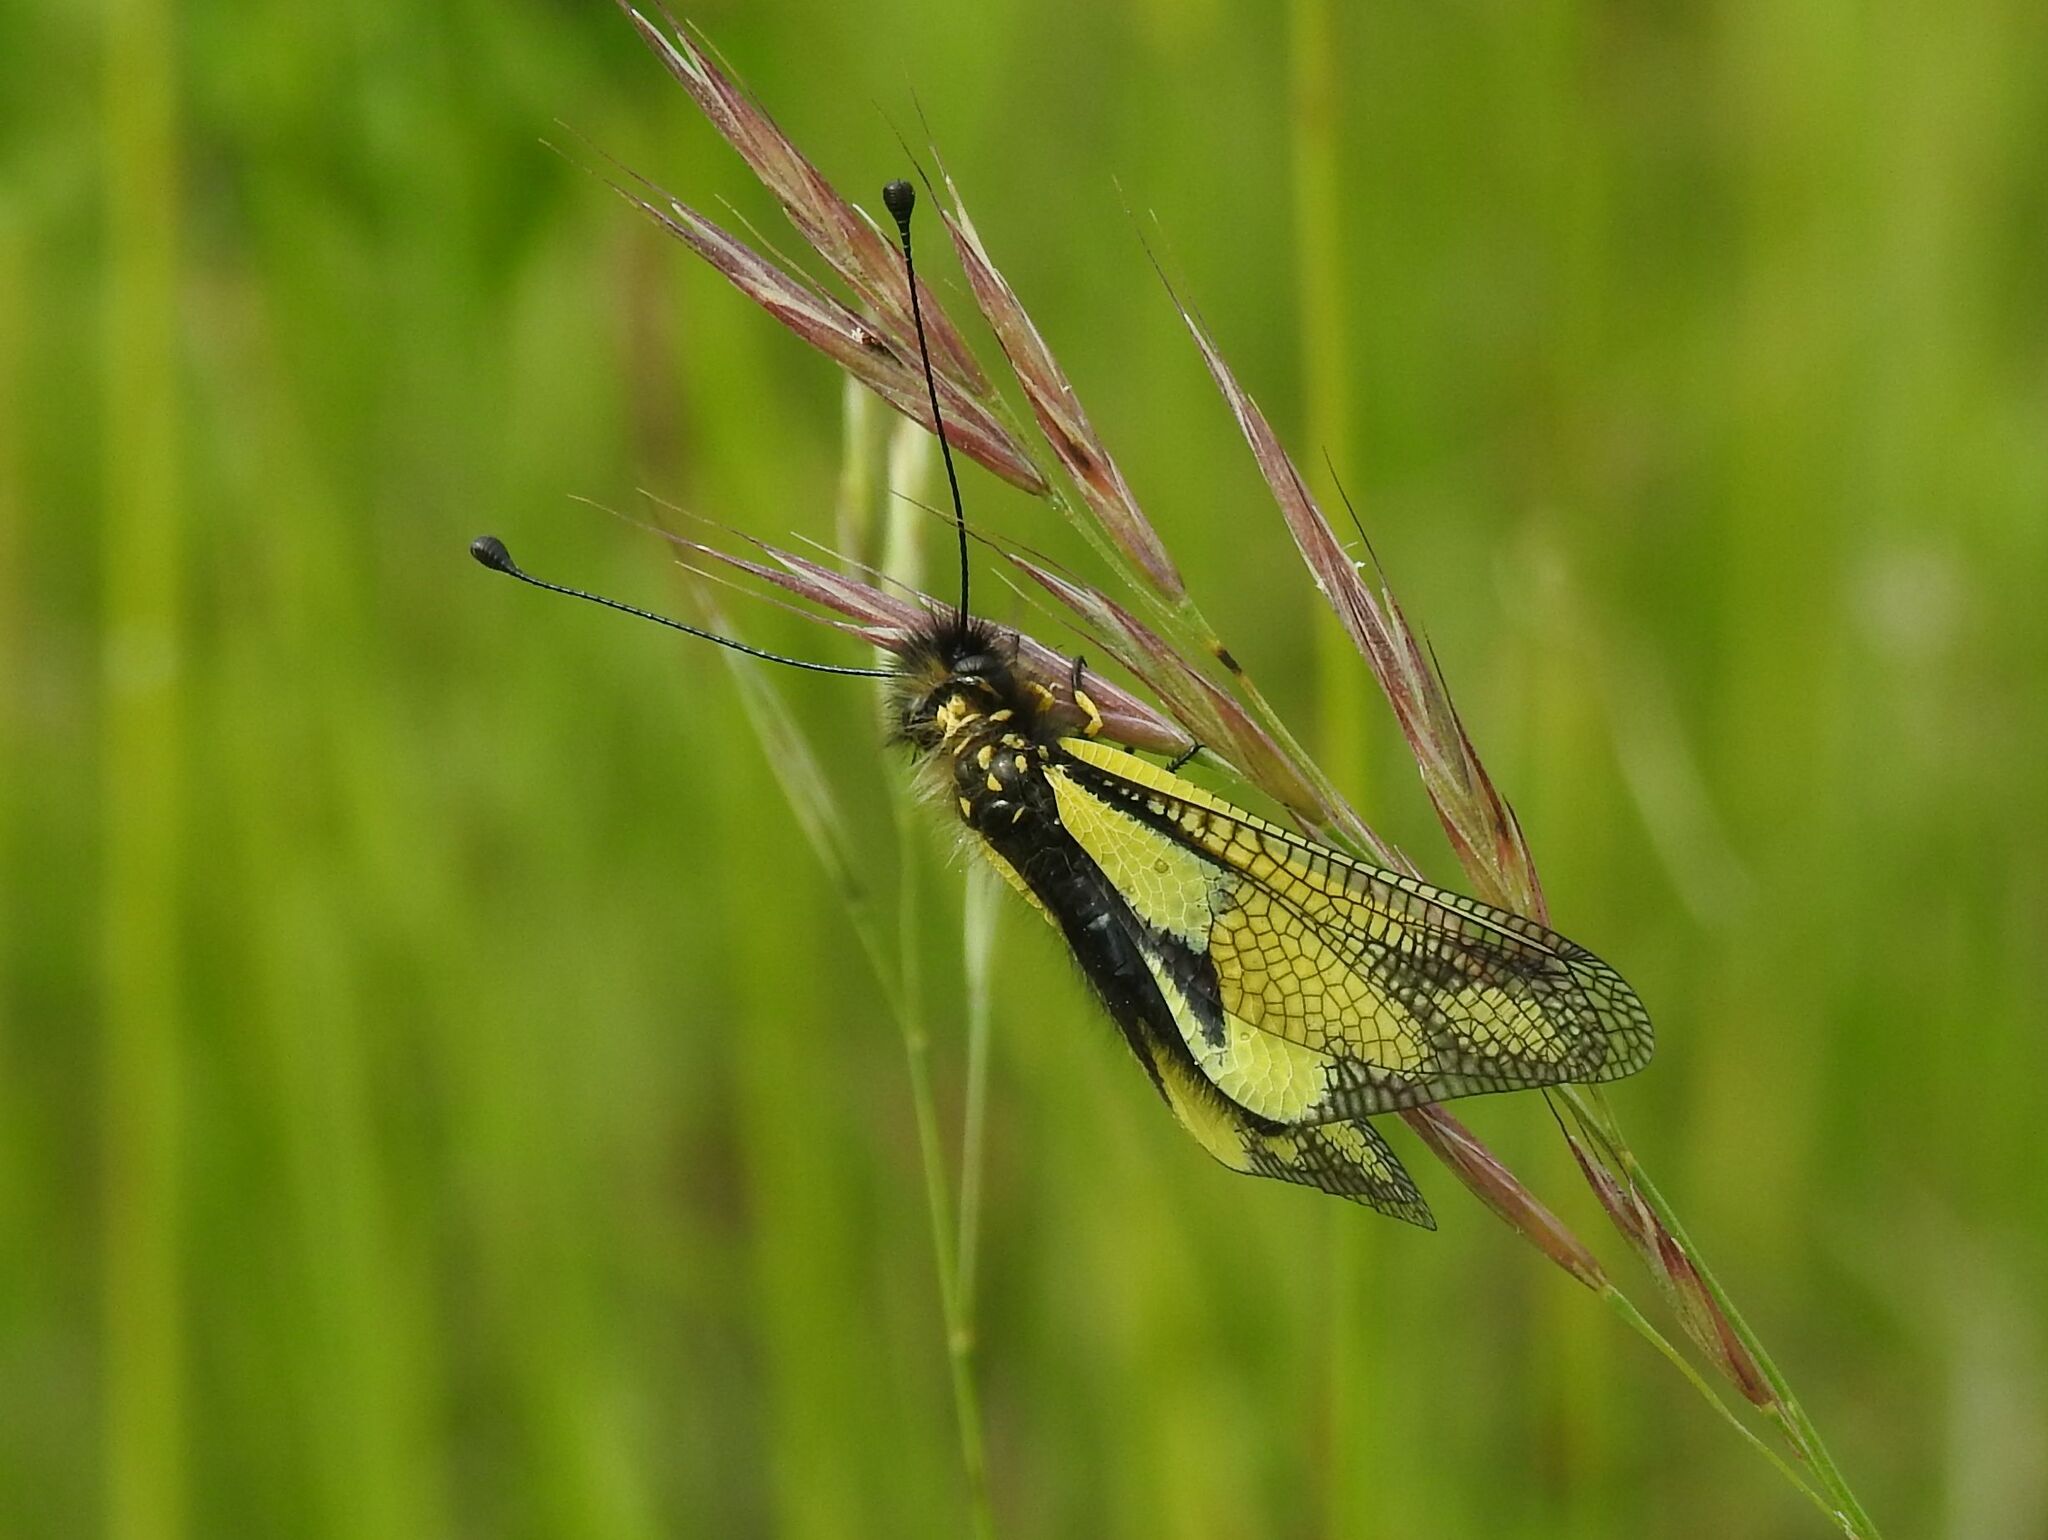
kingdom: Animalia
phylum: Arthropoda
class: Insecta
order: Neuroptera
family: Ascalaphidae
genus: Libelloides
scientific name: Libelloides coccajus
